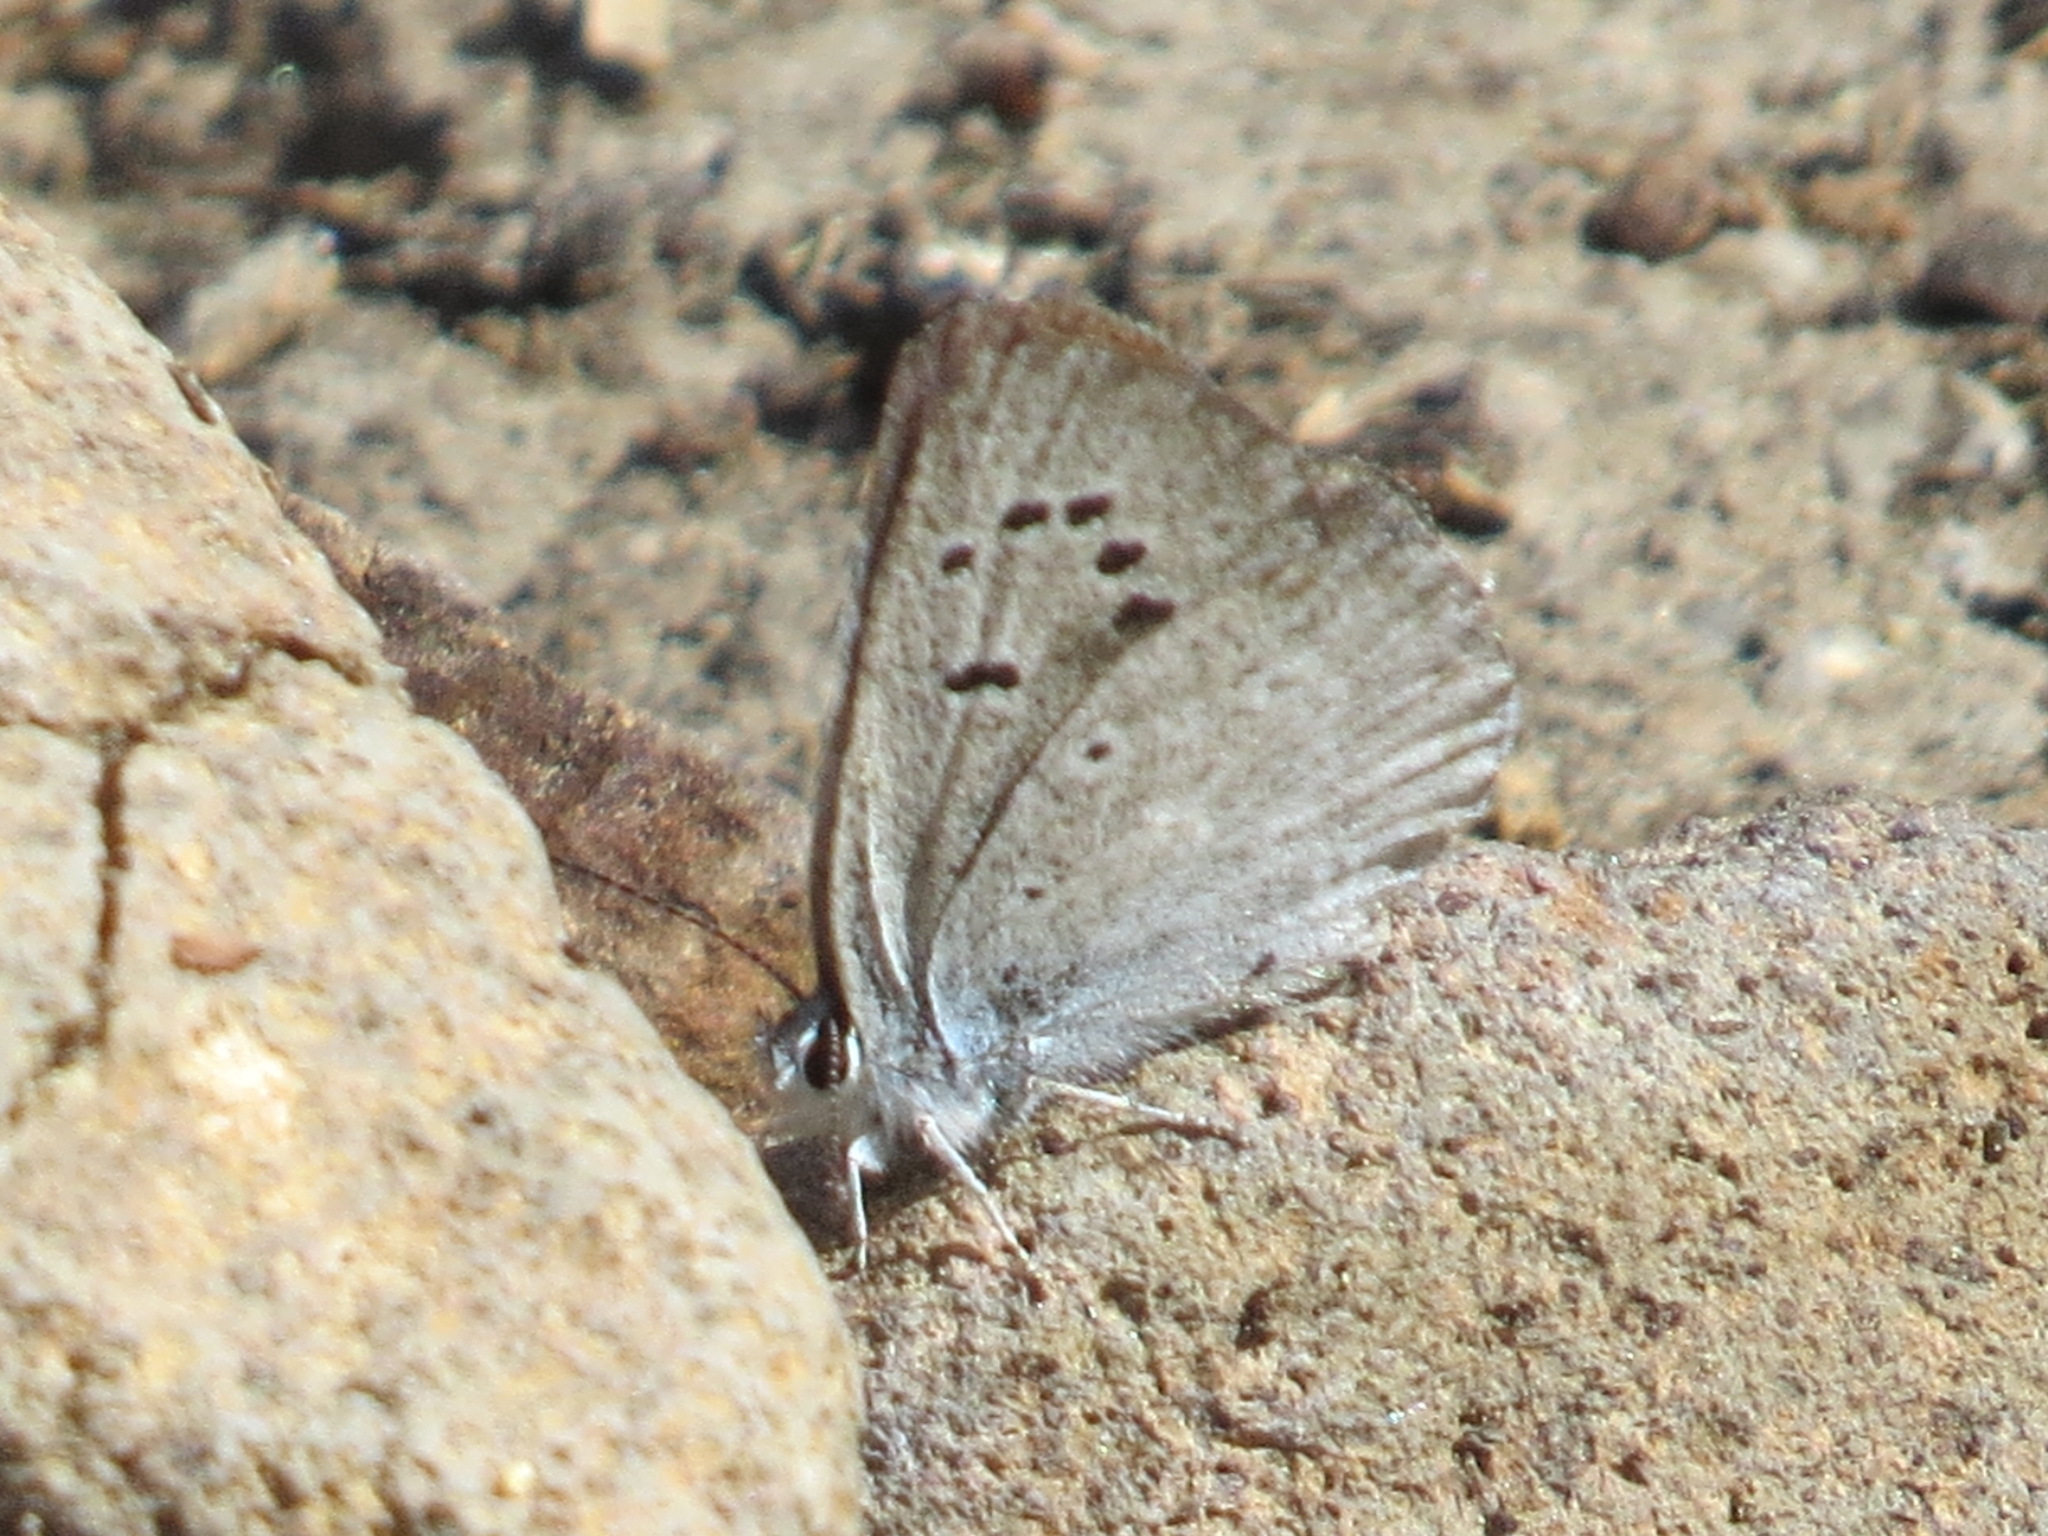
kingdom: Animalia
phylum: Arthropoda
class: Insecta
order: Lepidoptera
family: Lycaenidae
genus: Icaricia
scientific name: Icaricia icarioides
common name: Boisduval's blue
